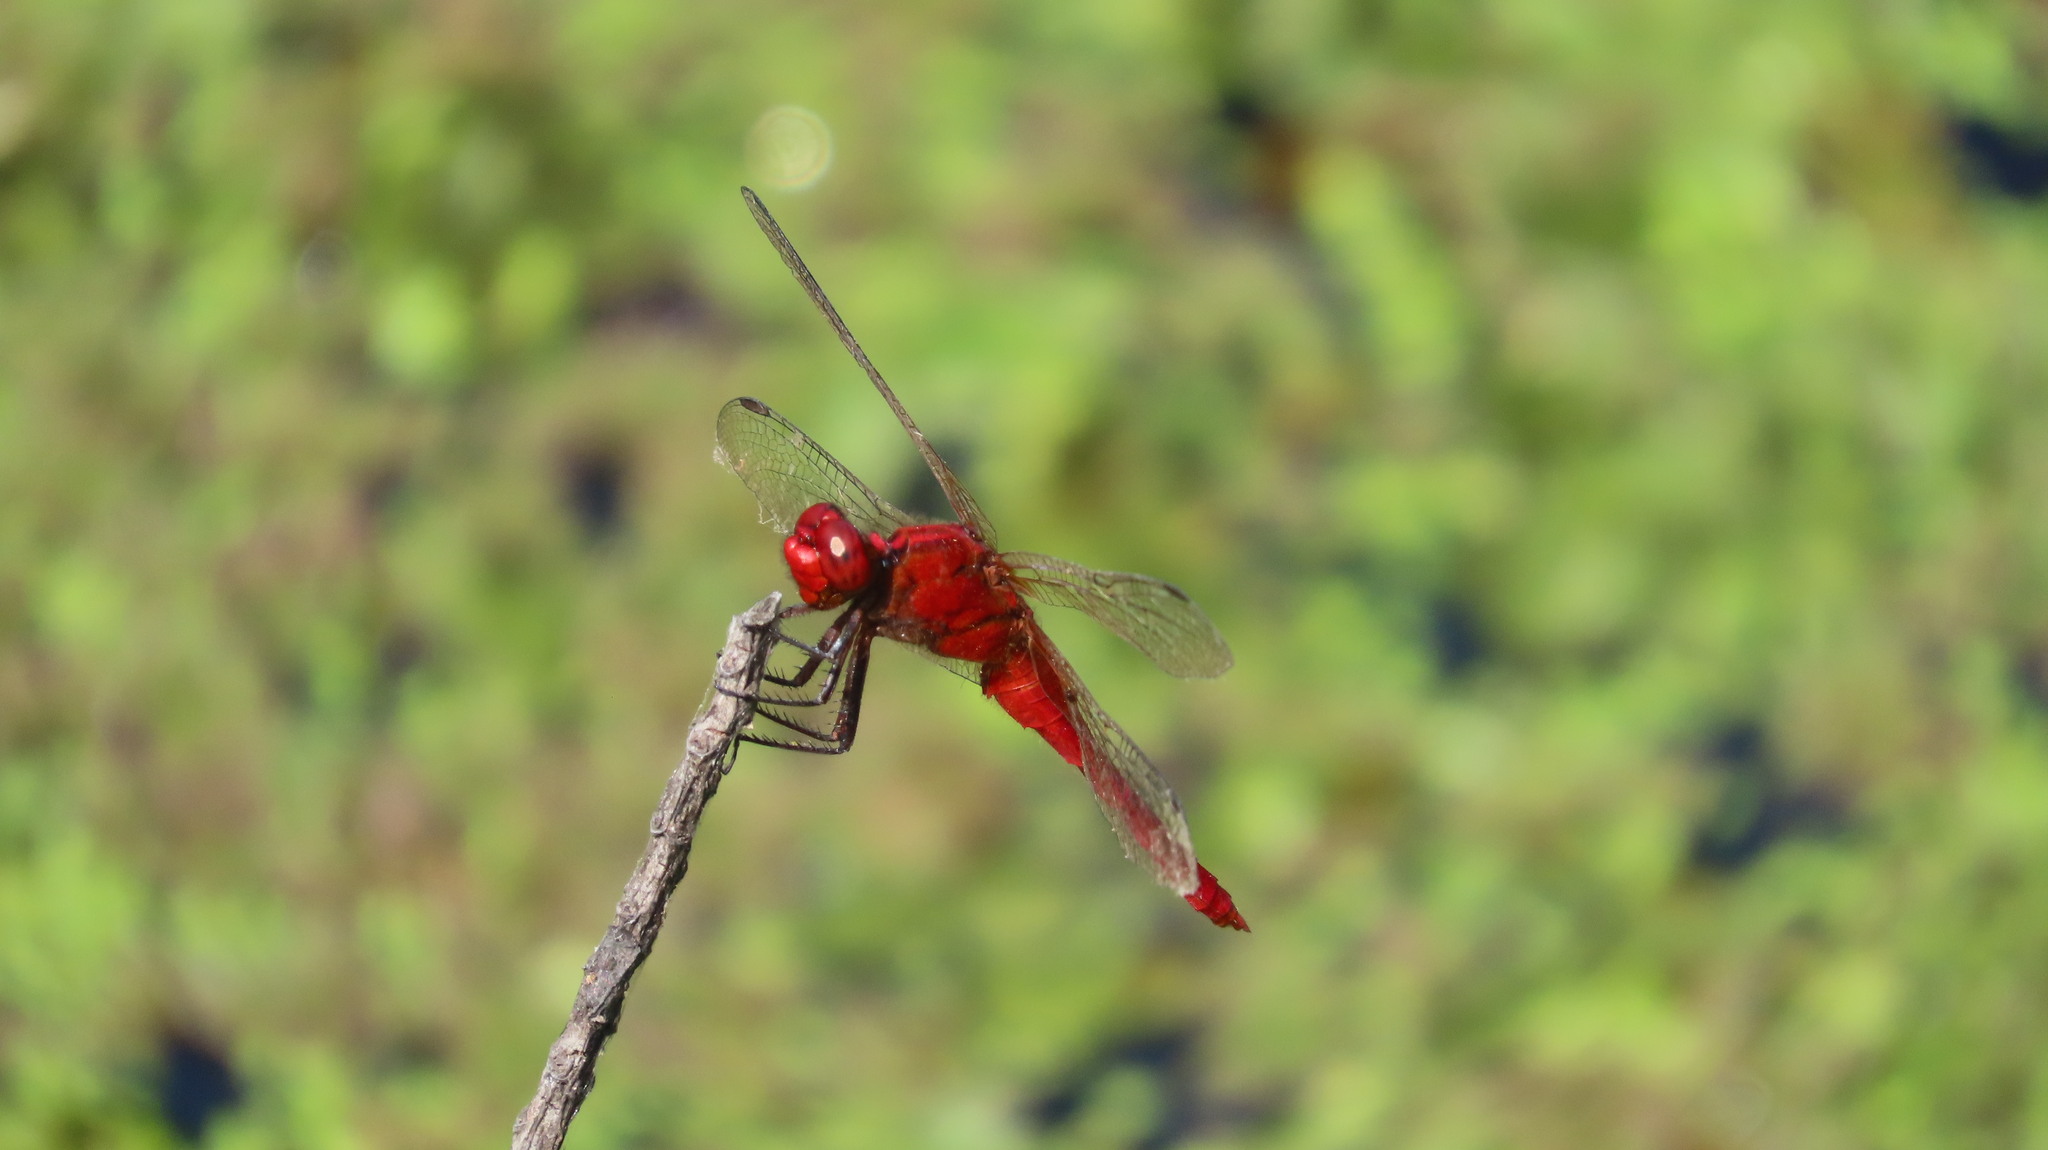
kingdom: Animalia
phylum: Arthropoda
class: Insecta
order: Odonata
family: Libellulidae
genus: Rhodothemis
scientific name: Rhodothemis rufa
